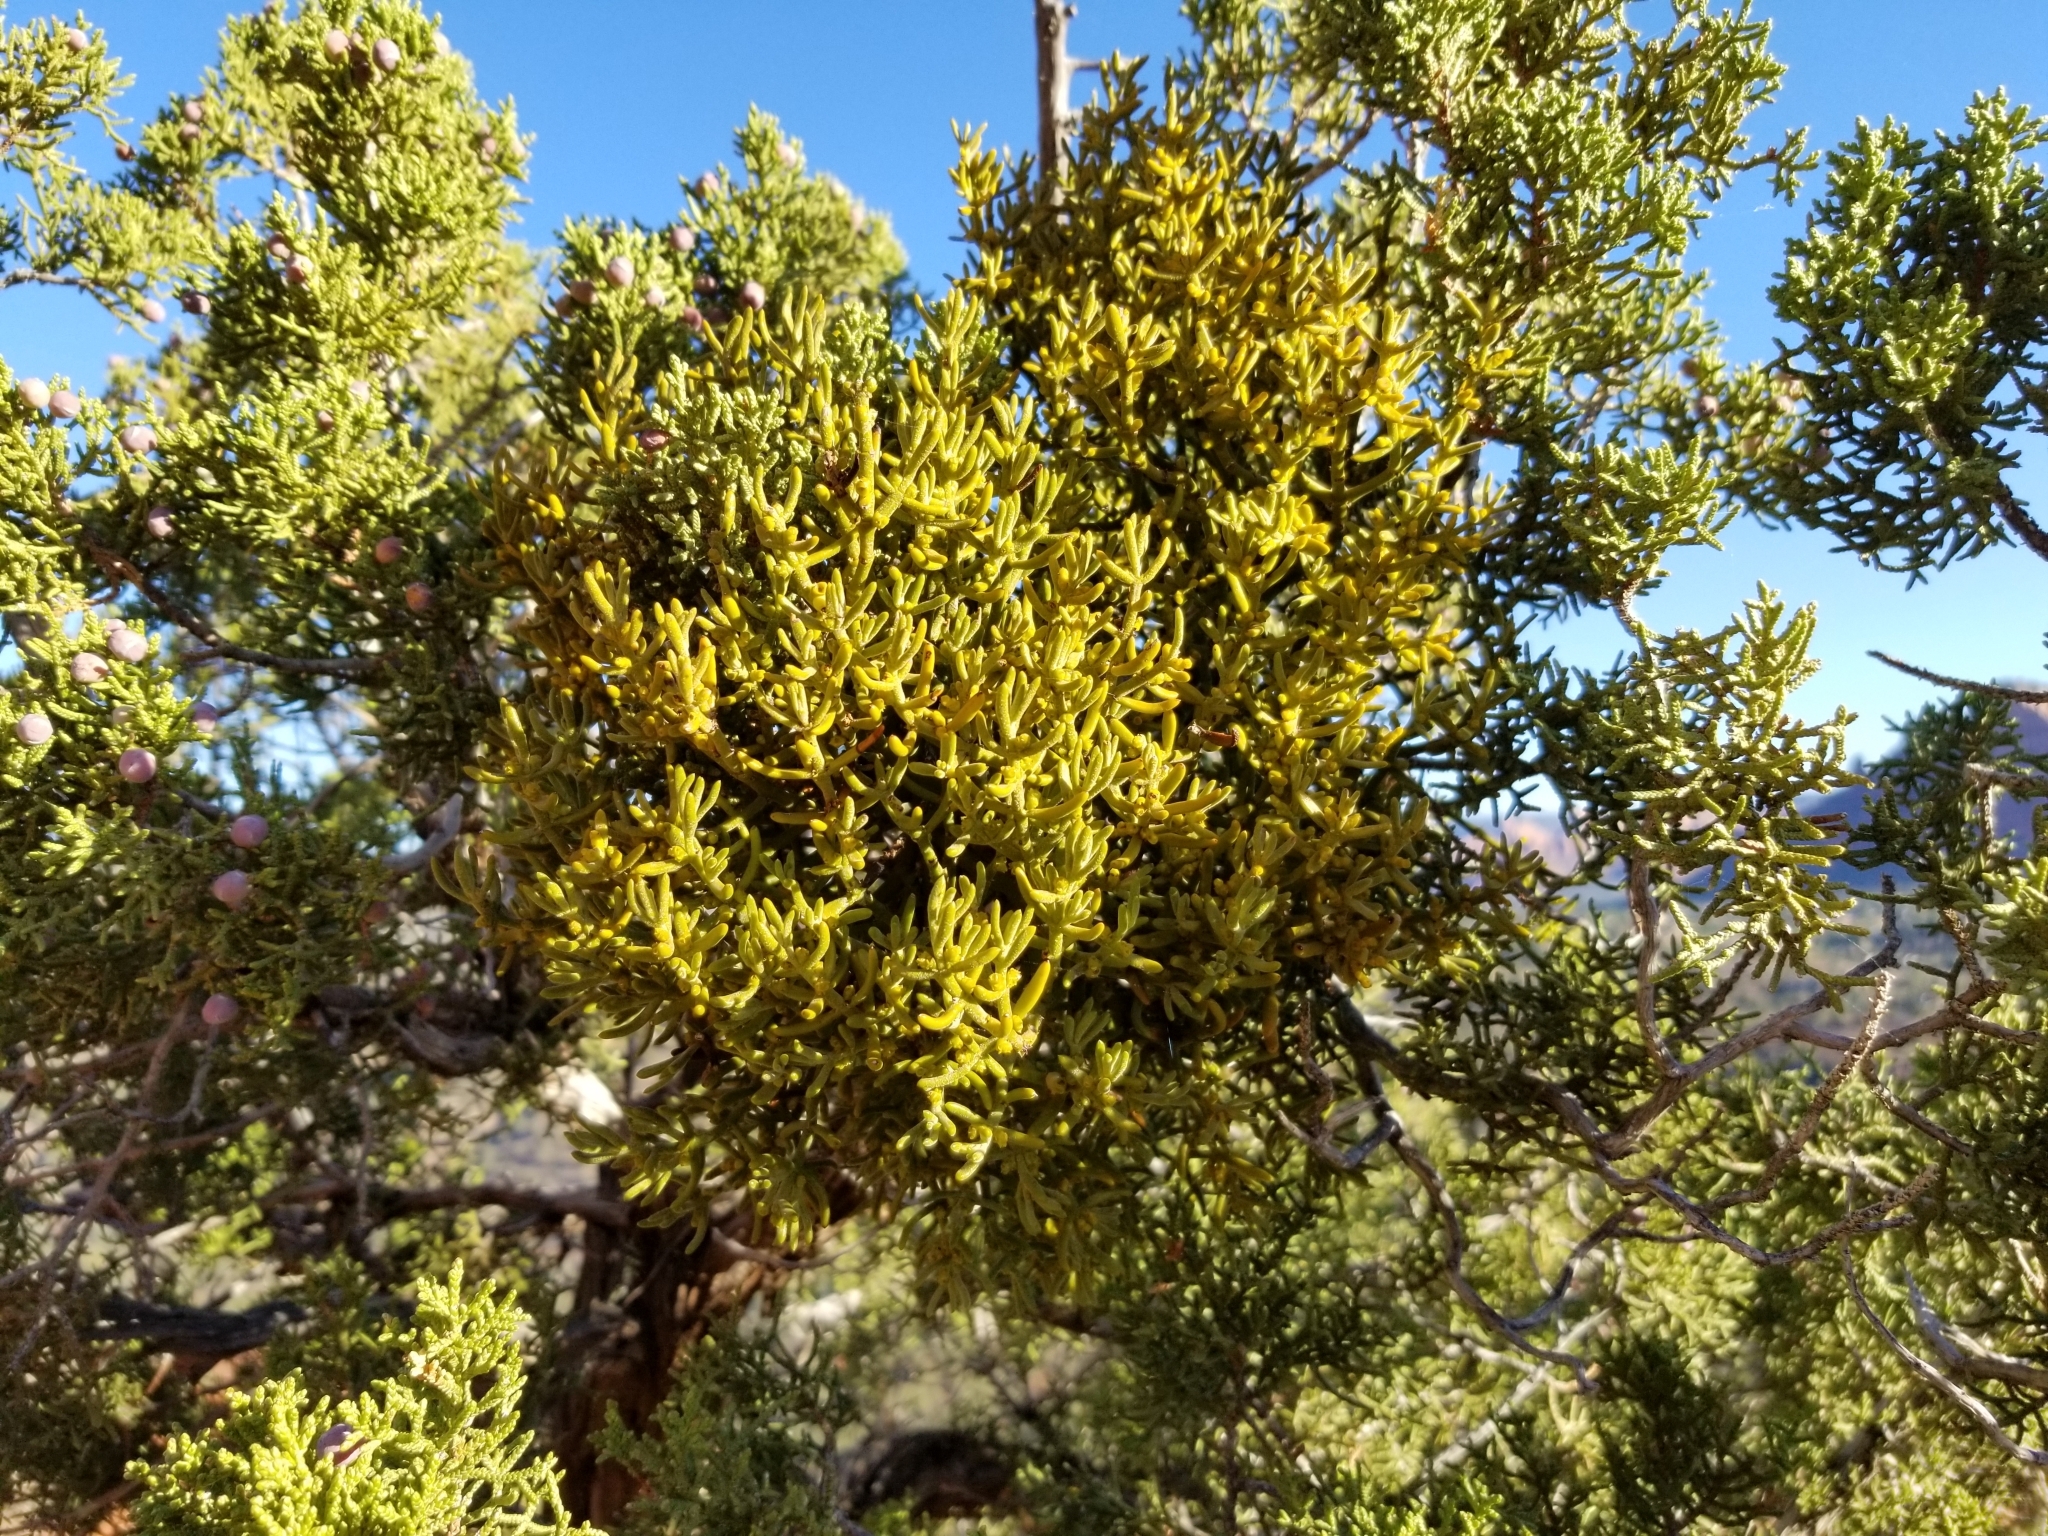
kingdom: Plantae
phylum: Tracheophyta
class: Magnoliopsida
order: Santalales
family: Viscaceae
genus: Phoradendron
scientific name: Phoradendron capitellatum
